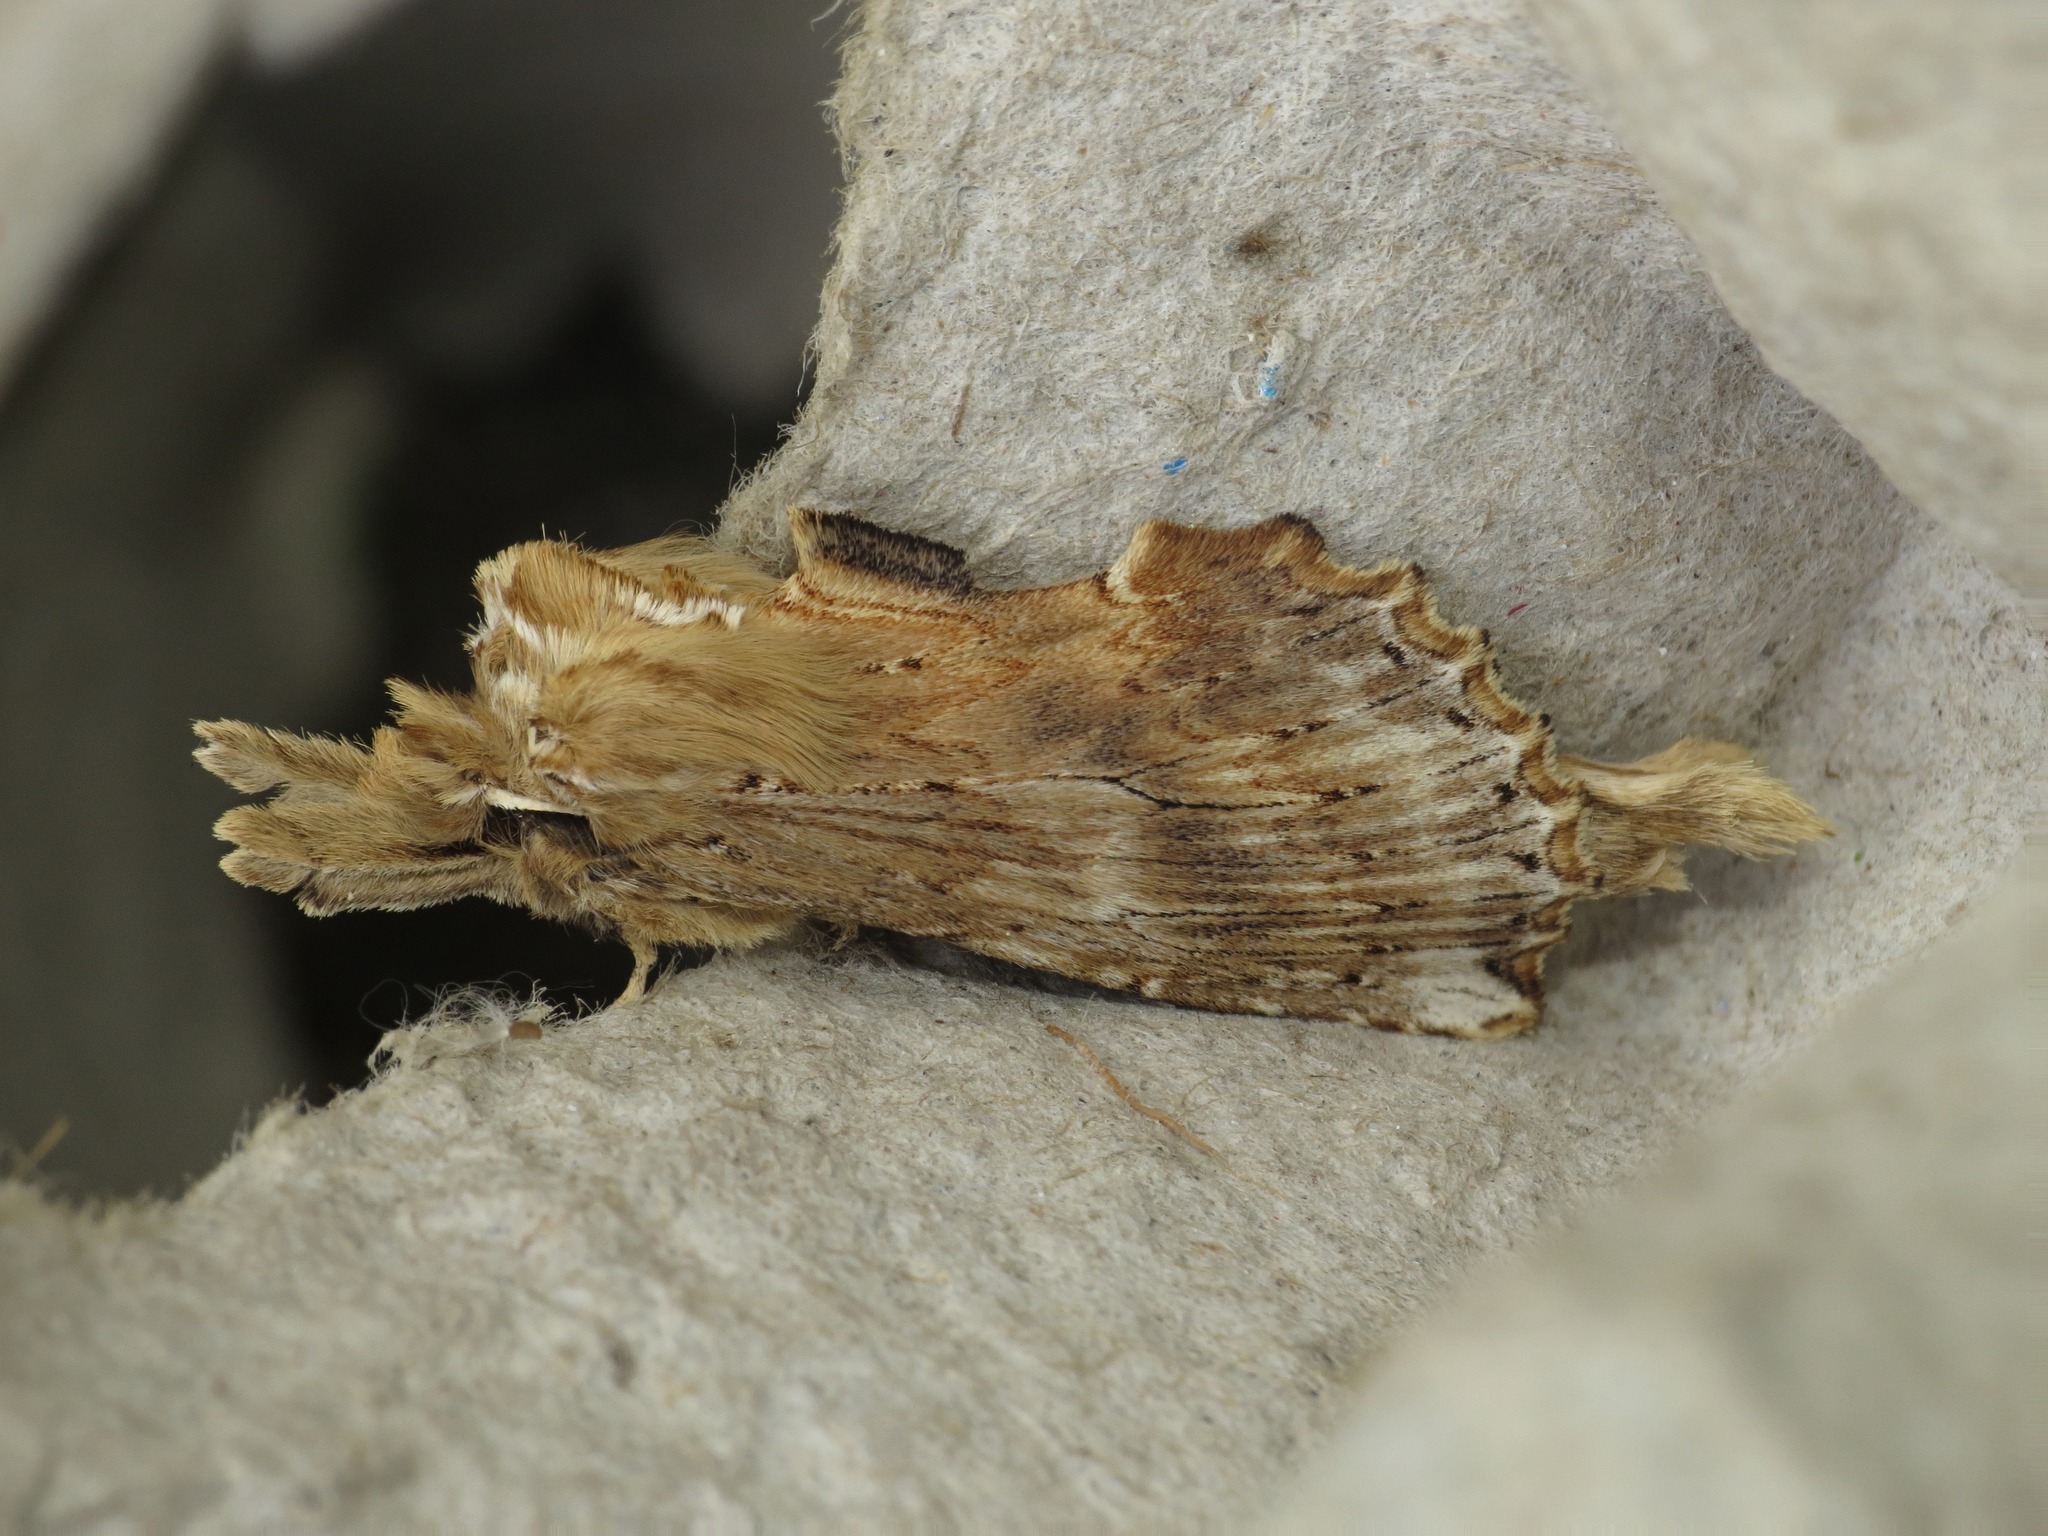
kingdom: Animalia
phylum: Arthropoda
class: Insecta
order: Lepidoptera
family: Notodontidae
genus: Pterostoma
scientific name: Pterostoma palpina
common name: Pale prominent
